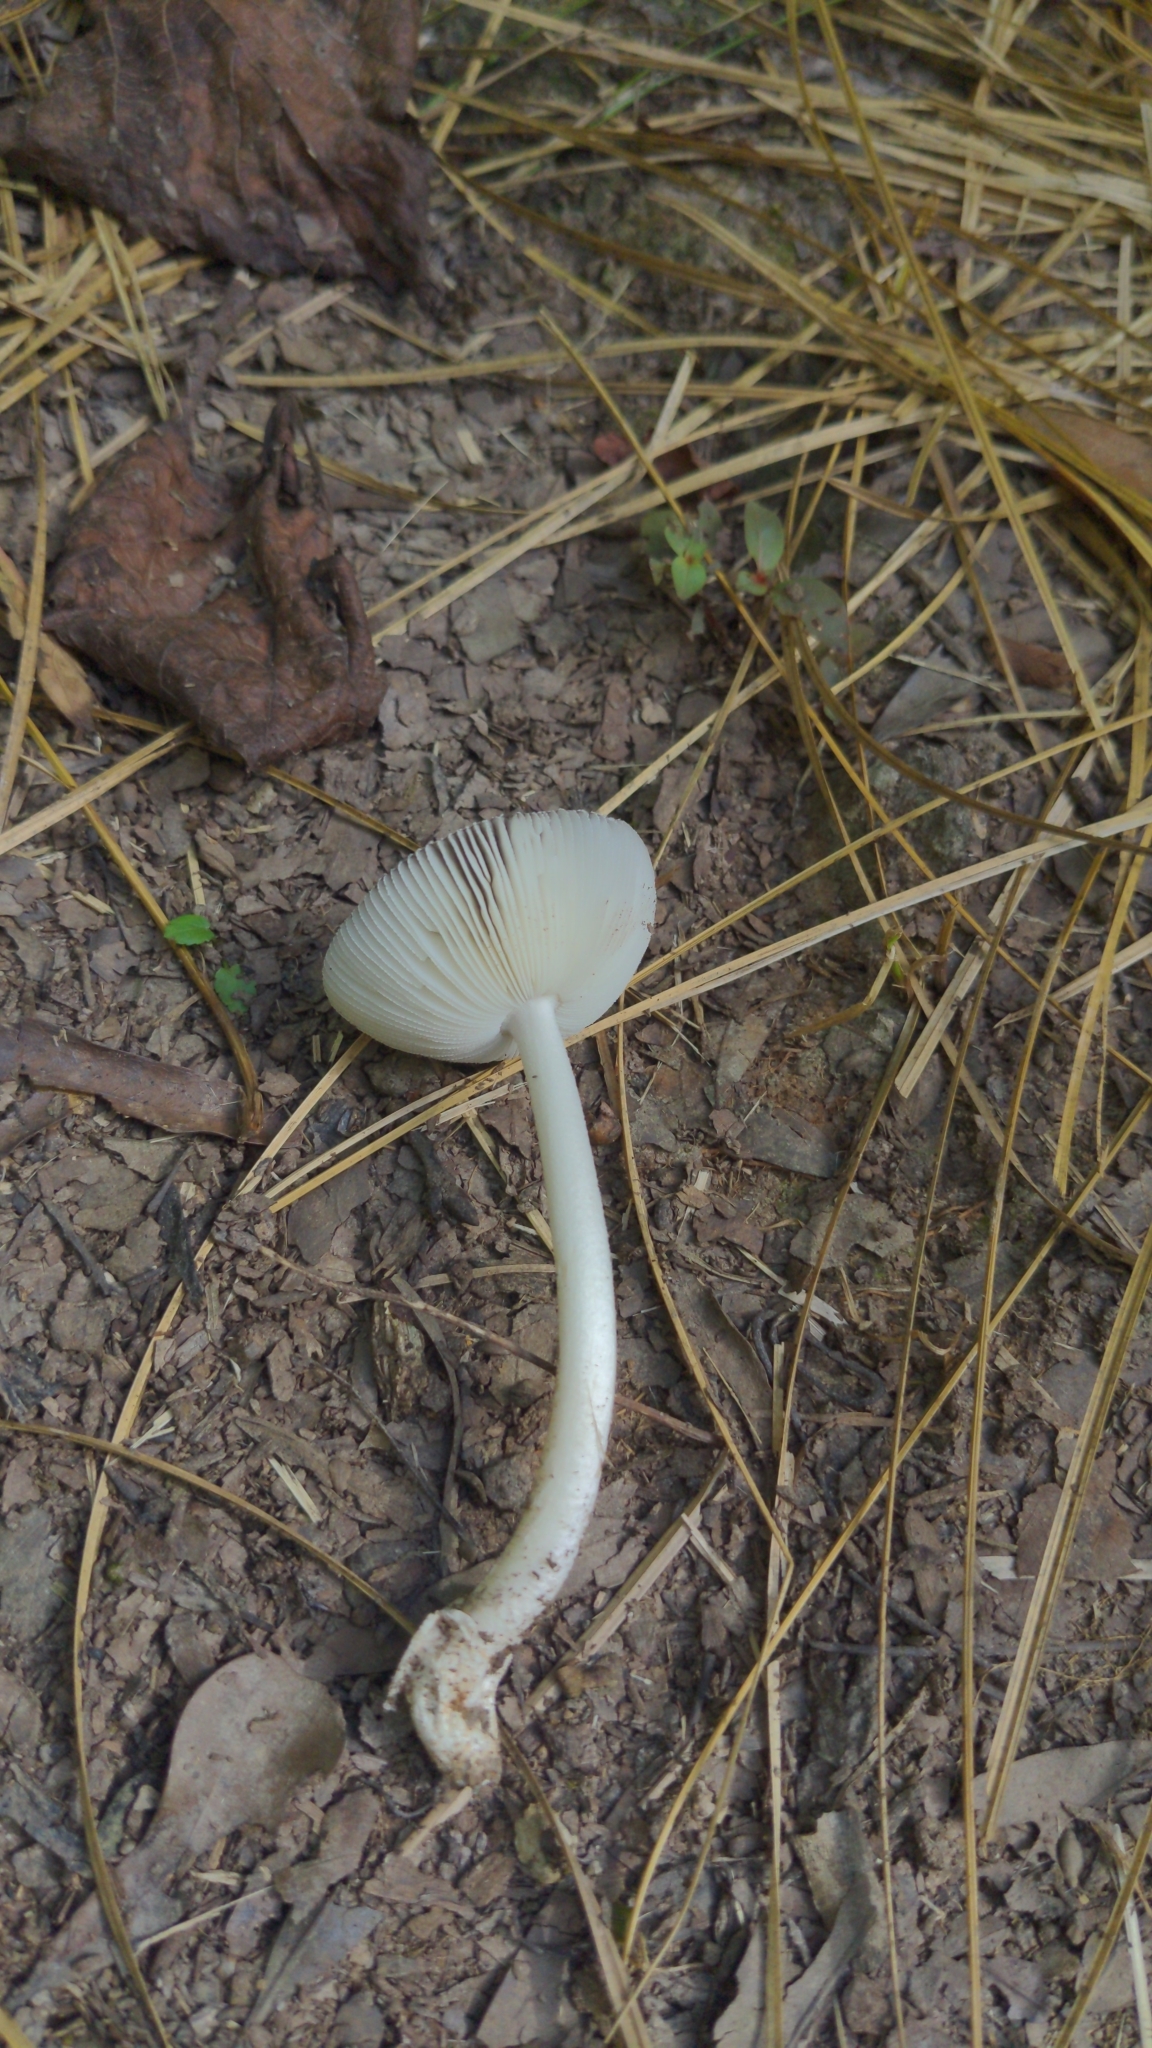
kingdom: Fungi
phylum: Basidiomycota
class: Agaricomycetes
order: Agaricales
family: Amanitaceae
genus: Amanita
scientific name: Amanita vaginata
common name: Grisette
